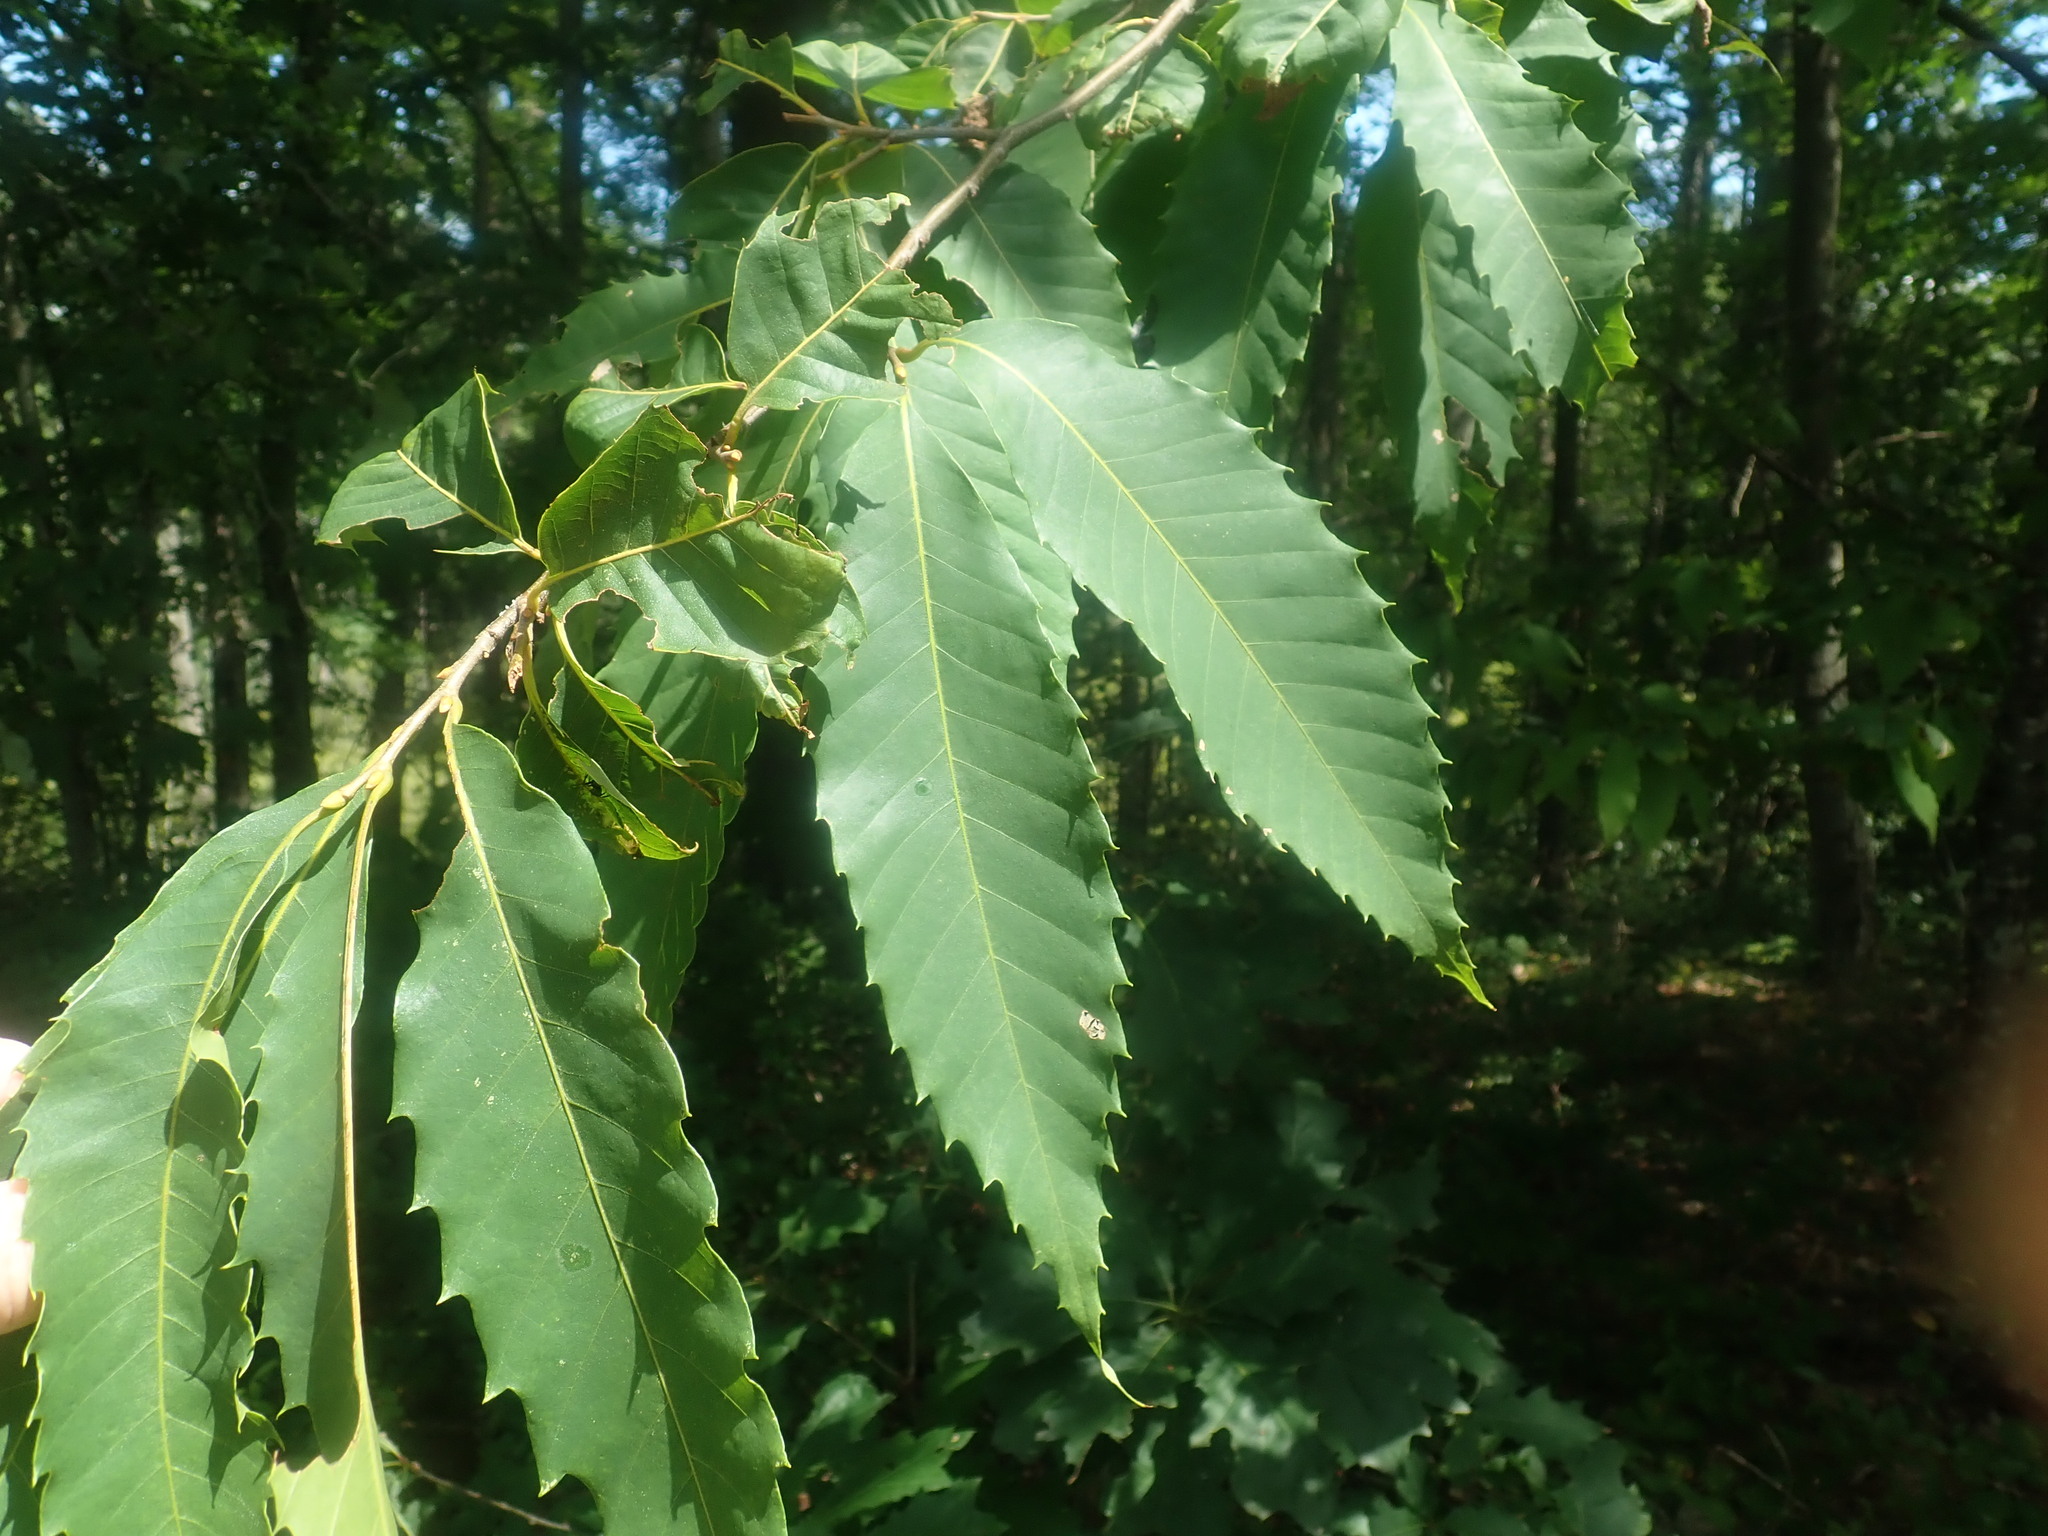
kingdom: Plantae
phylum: Tracheophyta
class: Magnoliopsida
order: Fagales
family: Fagaceae
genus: Castanea
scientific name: Castanea dentata
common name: American chestnut
